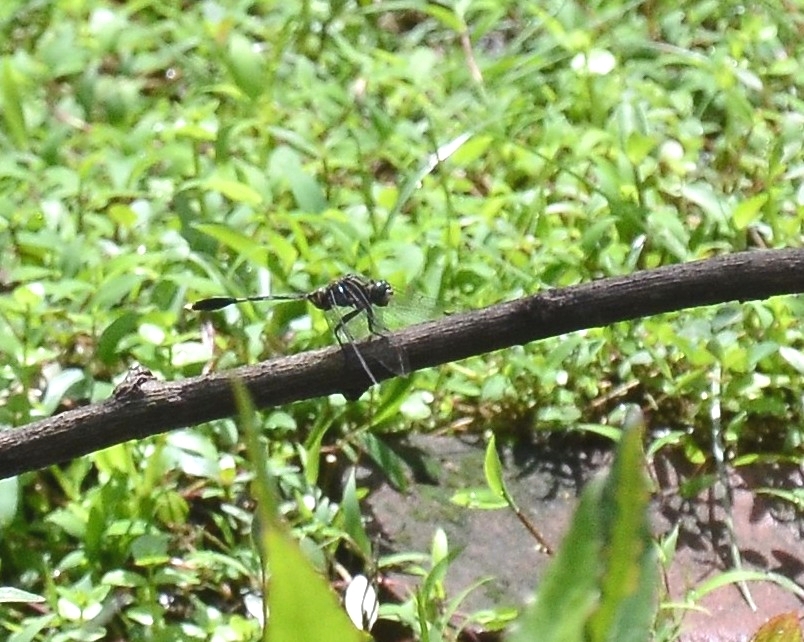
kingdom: Animalia
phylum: Arthropoda
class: Insecta
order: Odonata
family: Libellulidae
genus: Orthetrum
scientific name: Orthetrum sabina
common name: Slender skimmer
